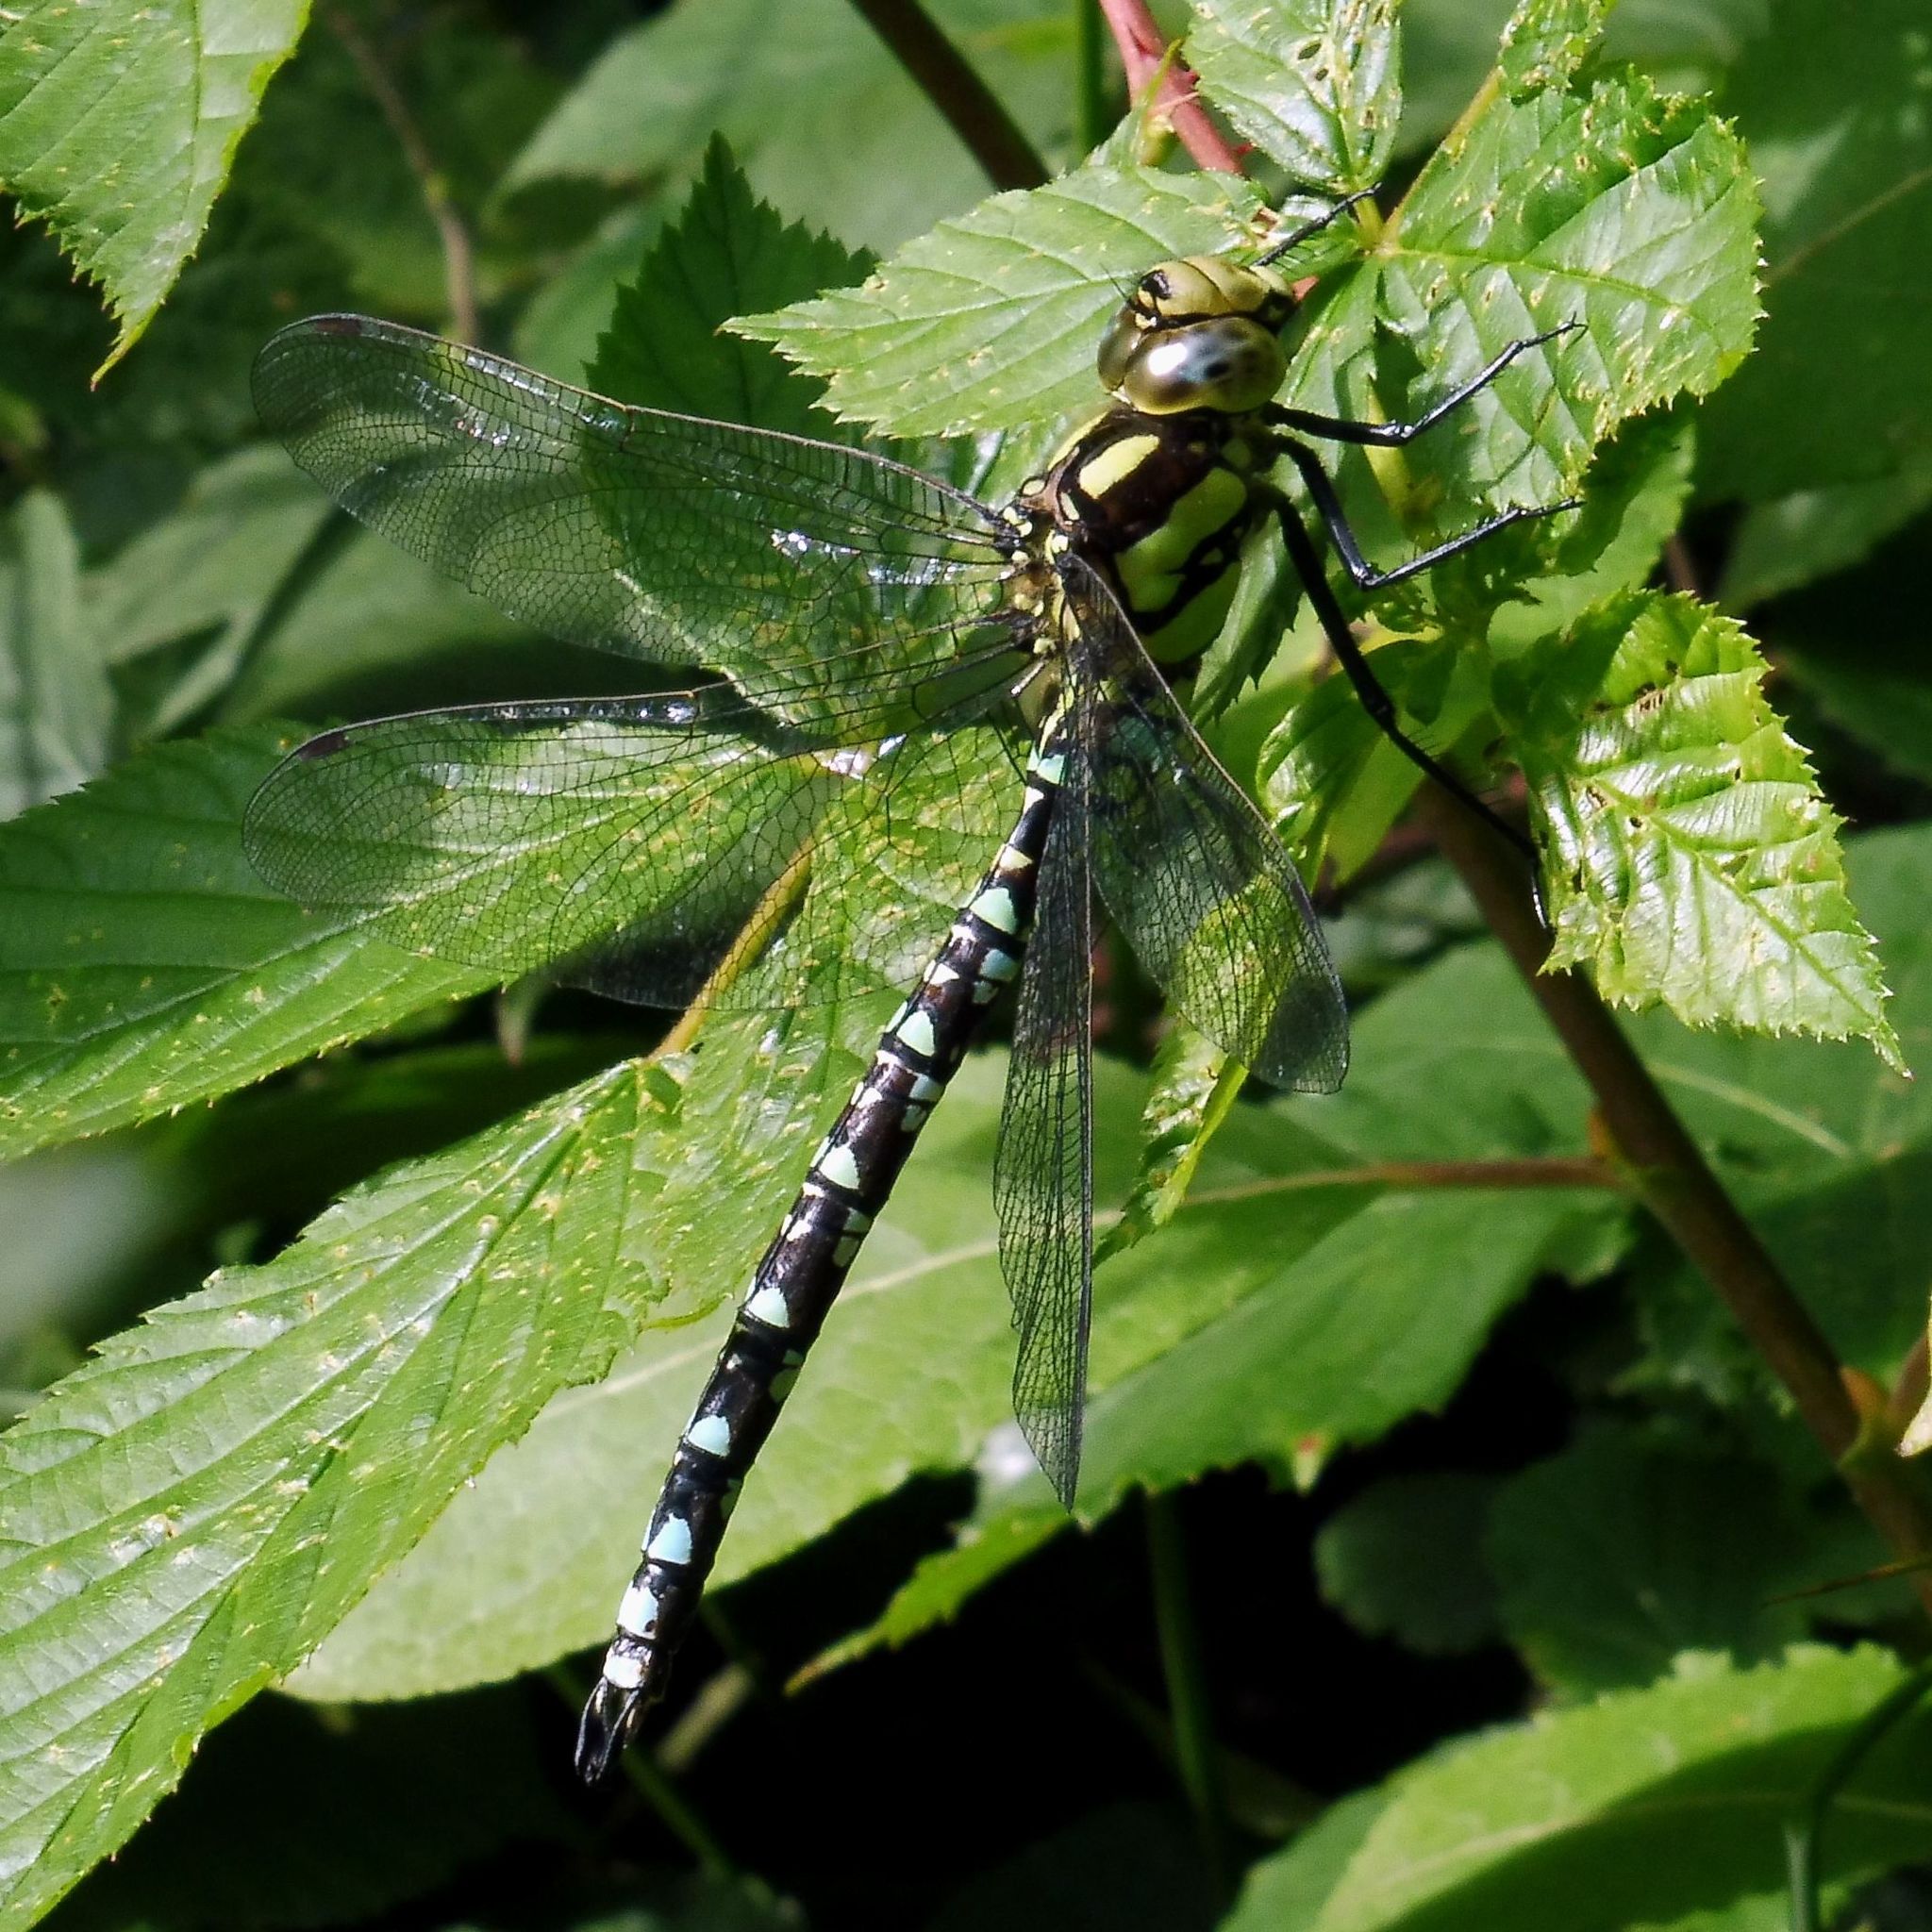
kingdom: Animalia
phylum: Arthropoda
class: Insecta
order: Odonata
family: Aeshnidae
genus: Aeshna
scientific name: Aeshna cyanea
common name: Southern hawker
